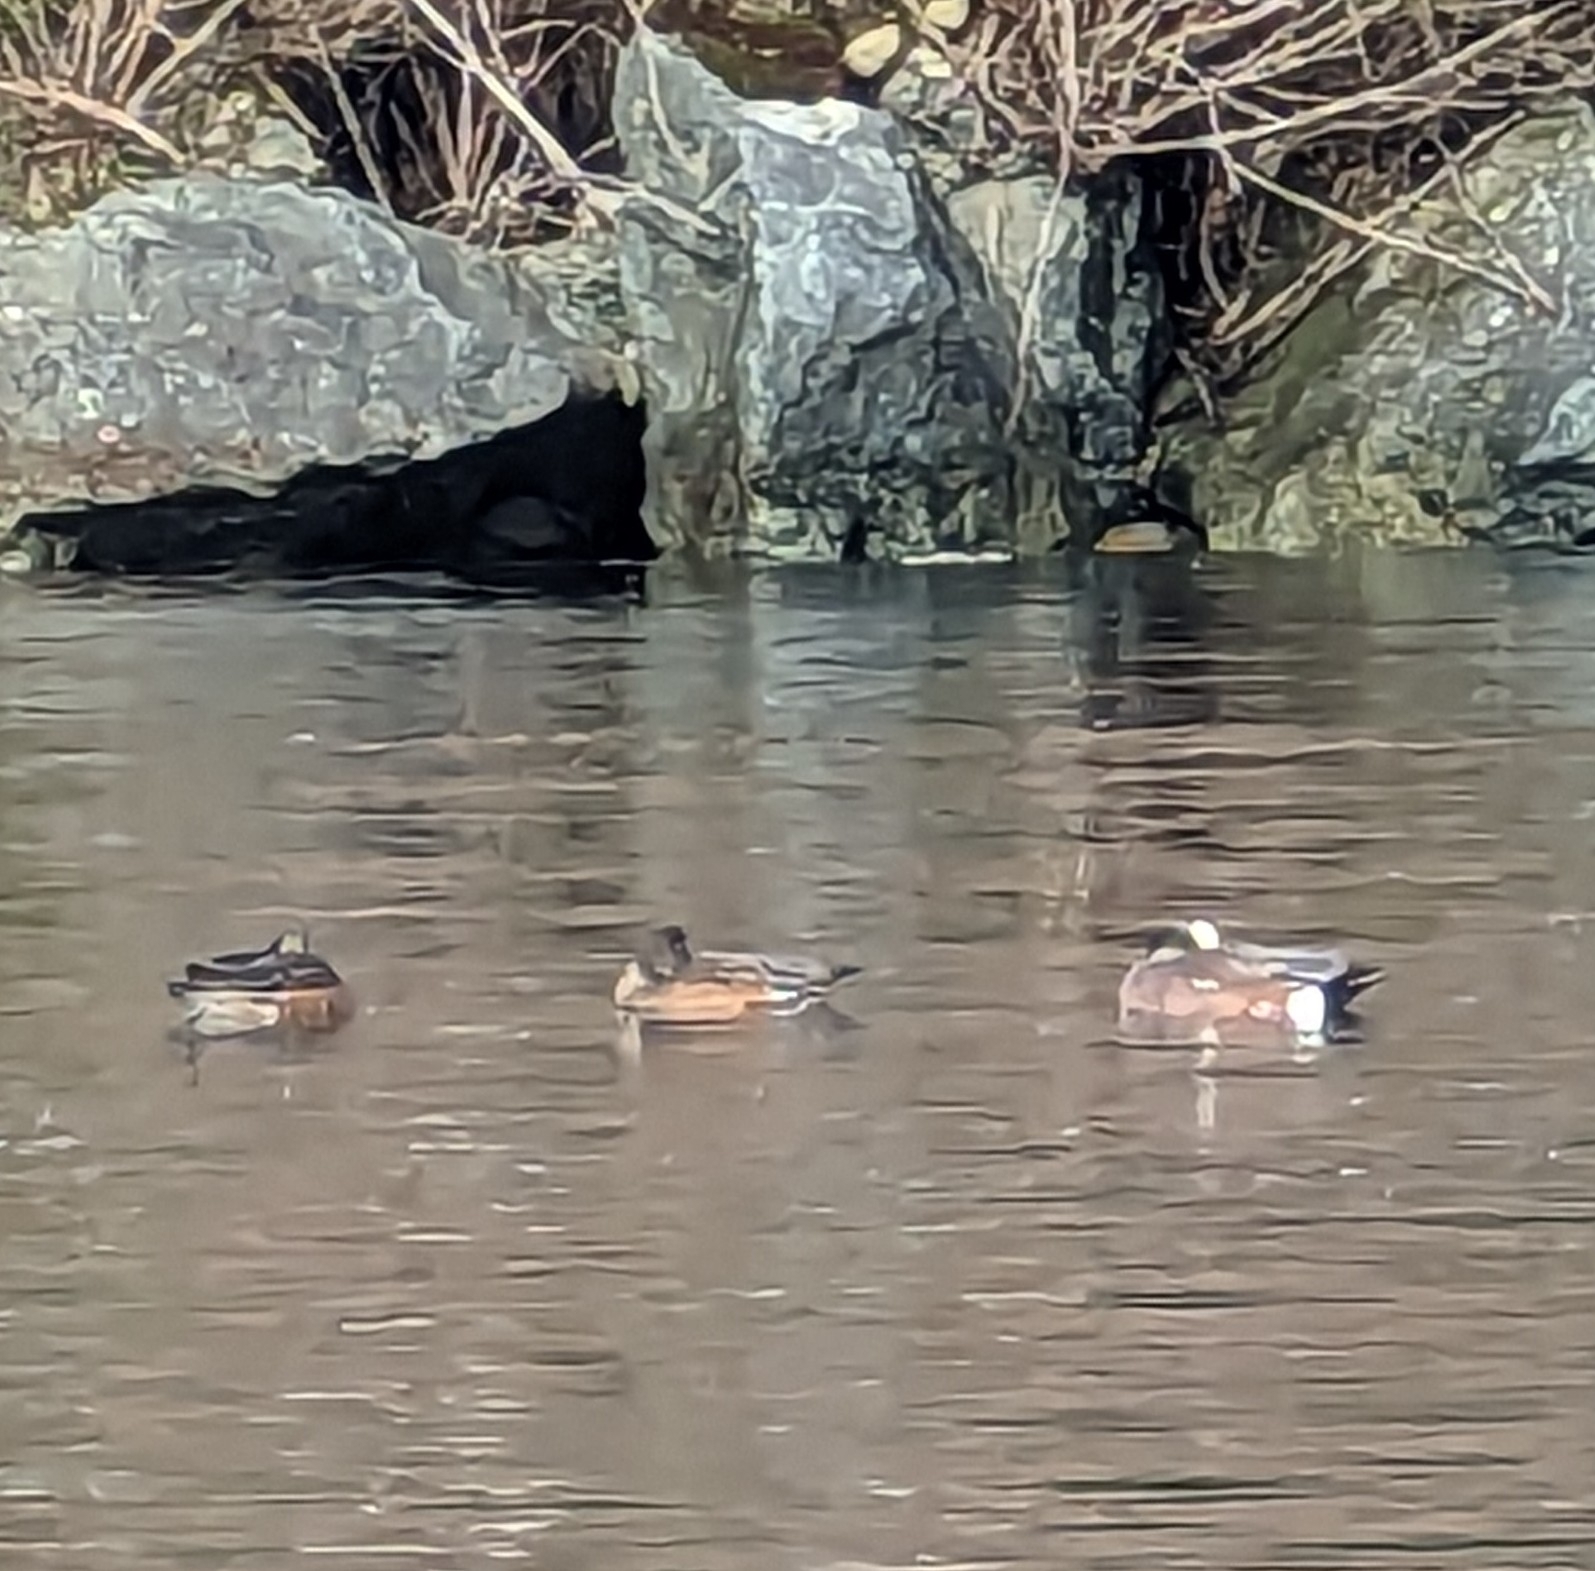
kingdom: Animalia
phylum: Chordata
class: Aves
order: Anseriformes
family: Anatidae
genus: Mareca
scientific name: Mareca americana
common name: American wigeon
